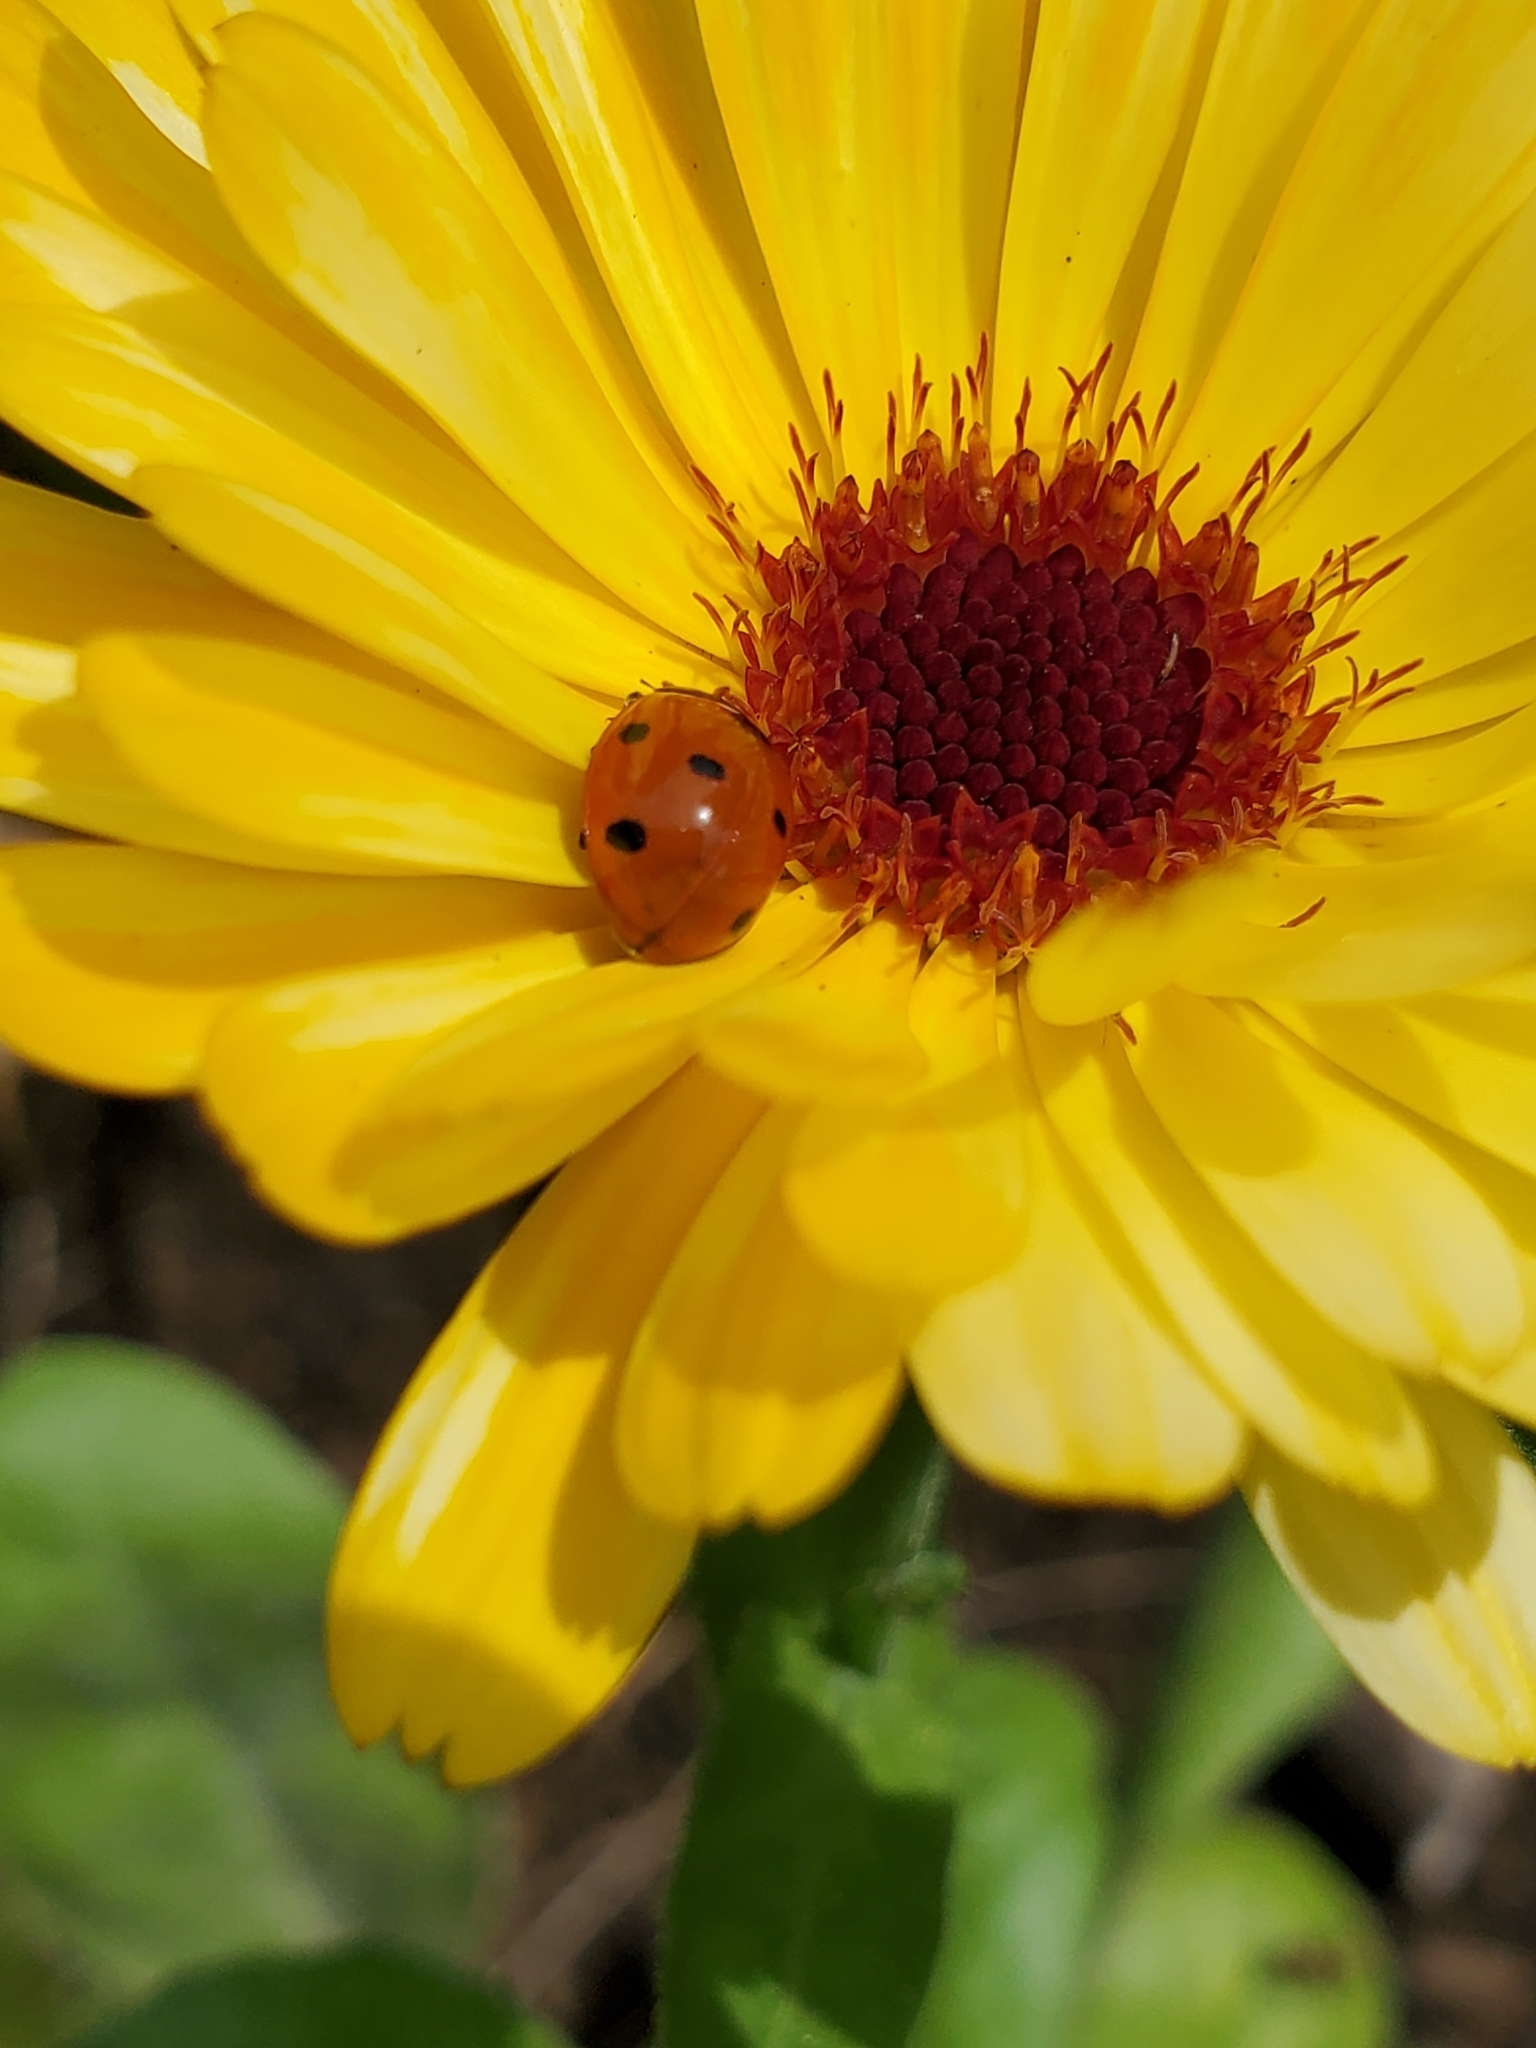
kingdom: Animalia
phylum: Arthropoda
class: Insecta
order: Coleoptera
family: Coccinellidae
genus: Coccinella
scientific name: Coccinella septempunctata
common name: Sevenspotted lady beetle
